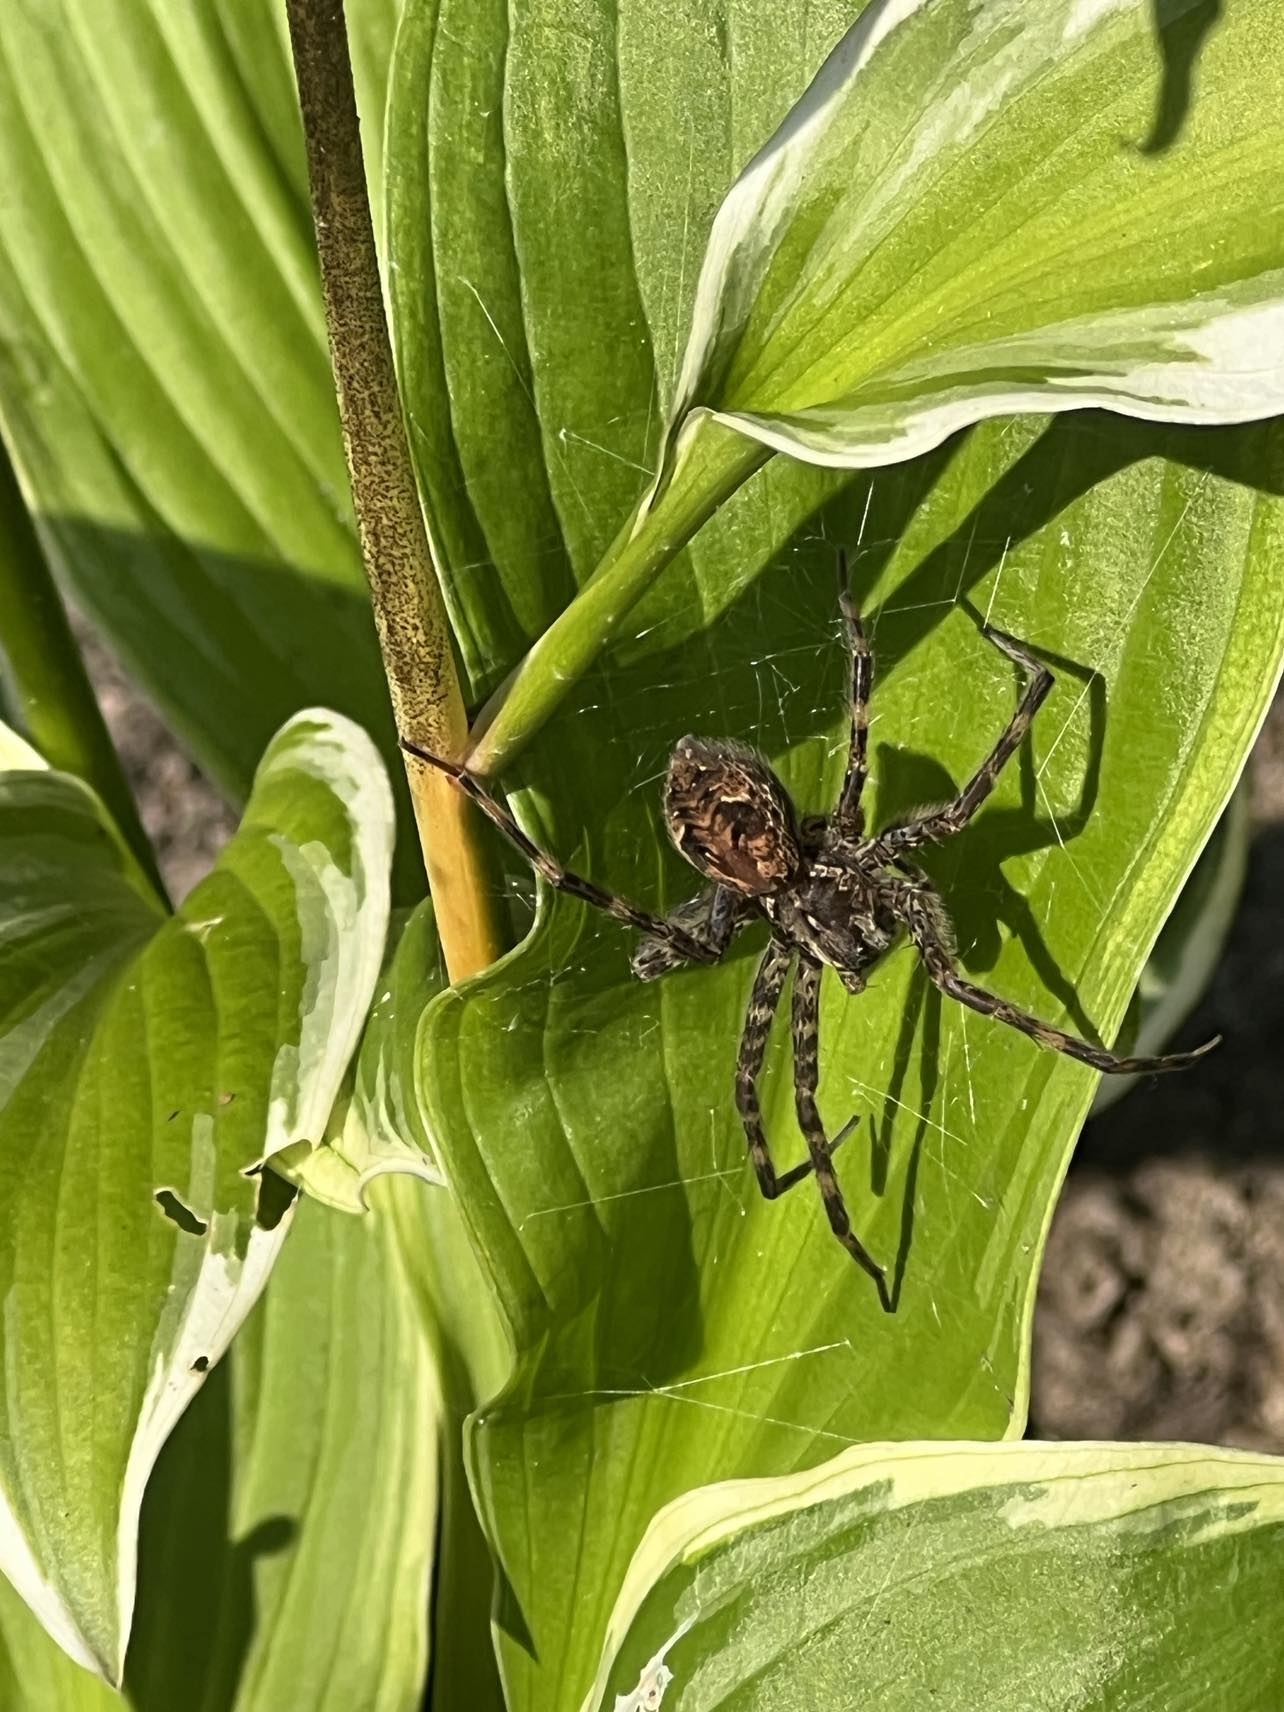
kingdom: Animalia
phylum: Arthropoda
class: Arachnida
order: Araneae
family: Pisauridae
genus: Dolomedes
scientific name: Dolomedes tenebrosus
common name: Dark fishing spider
